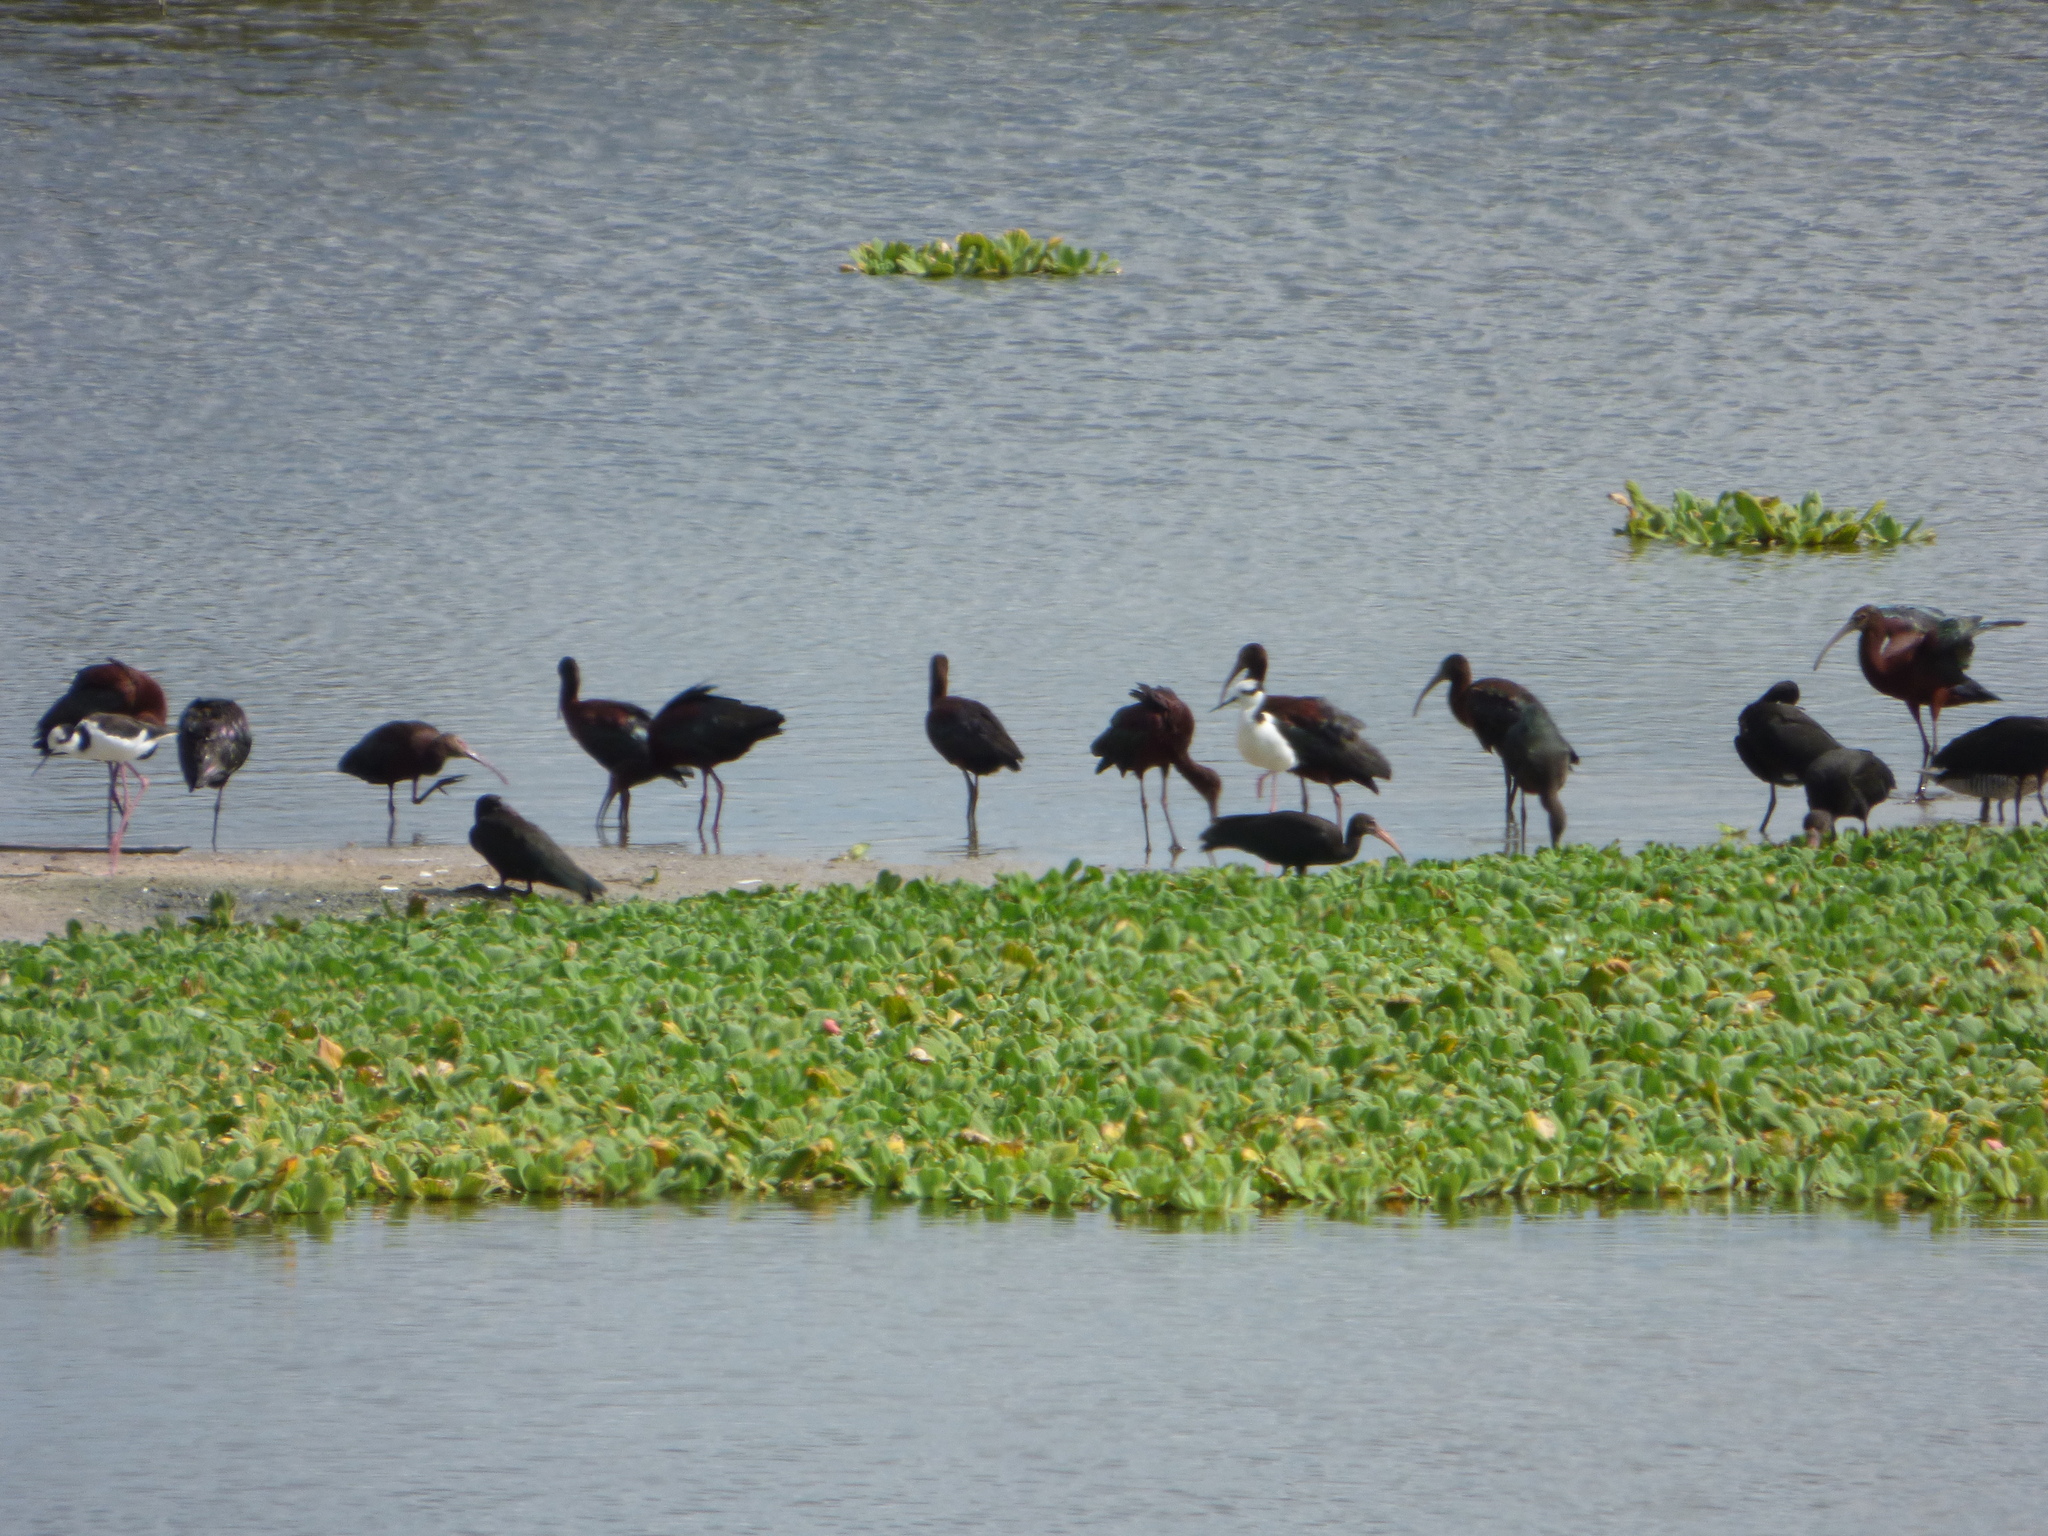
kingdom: Animalia
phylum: Chordata
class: Aves
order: Pelecaniformes
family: Threskiornithidae
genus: Plegadis
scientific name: Plegadis chihi
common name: White-faced ibis
